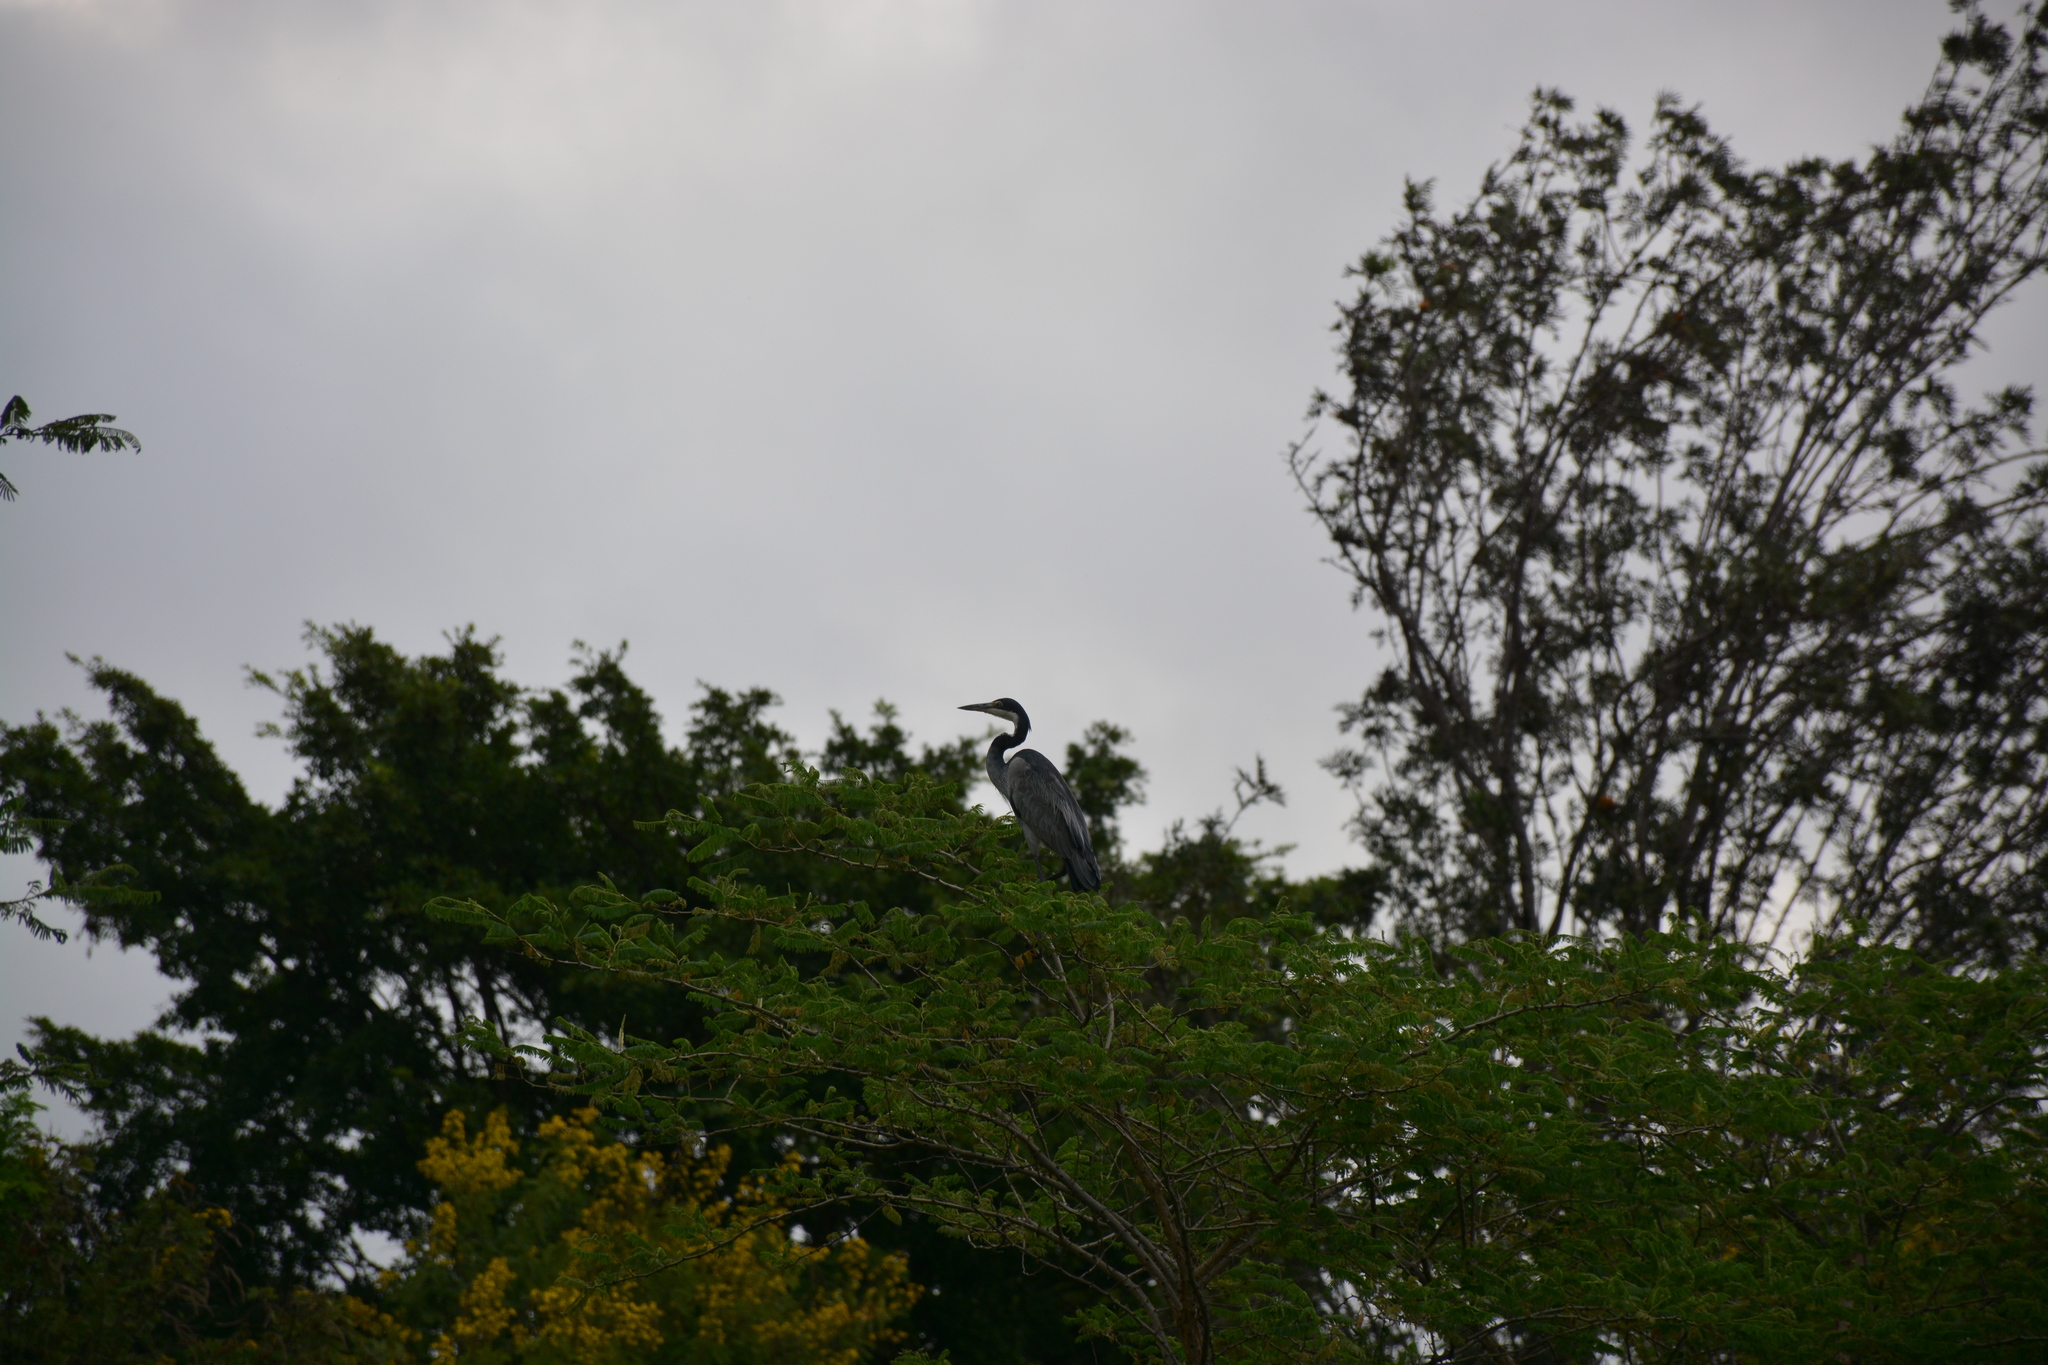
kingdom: Animalia
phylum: Chordata
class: Aves
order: Pelecaniformes
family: Ardeidae
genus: Ardea
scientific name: Ardea melanocephala
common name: Black-headed heron
